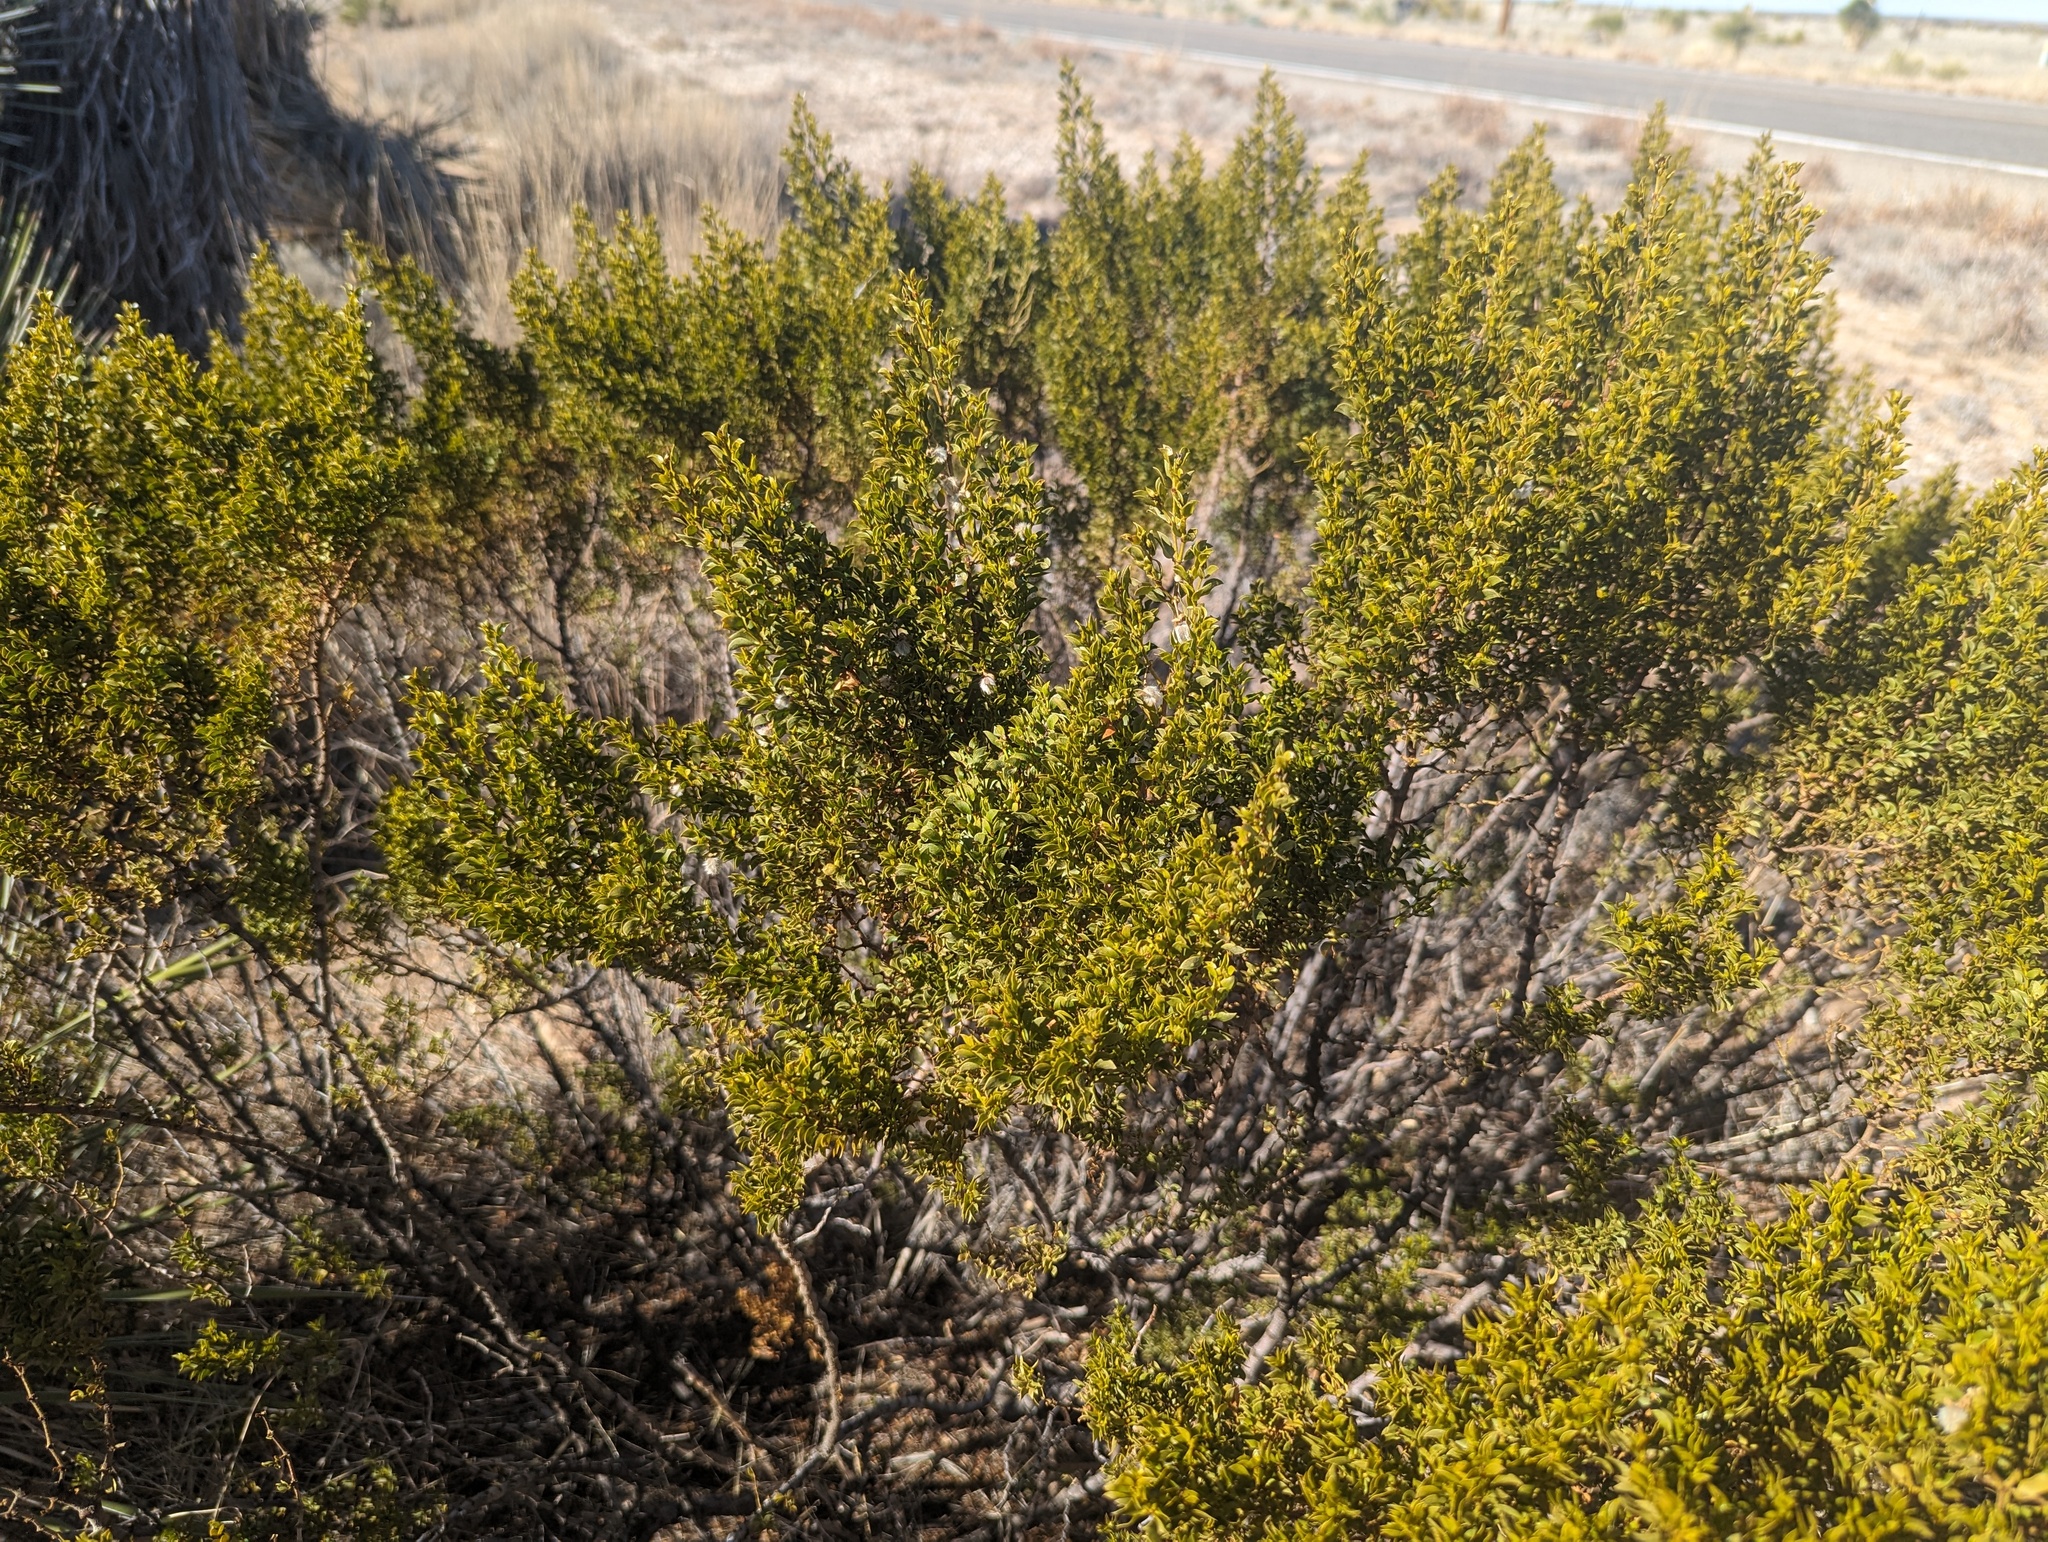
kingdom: Plantae
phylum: Tracheophyta
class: Magnoliopsida
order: Zygophyllales
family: Zygophyllaceae
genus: Larrea
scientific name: Larrea tridentata
